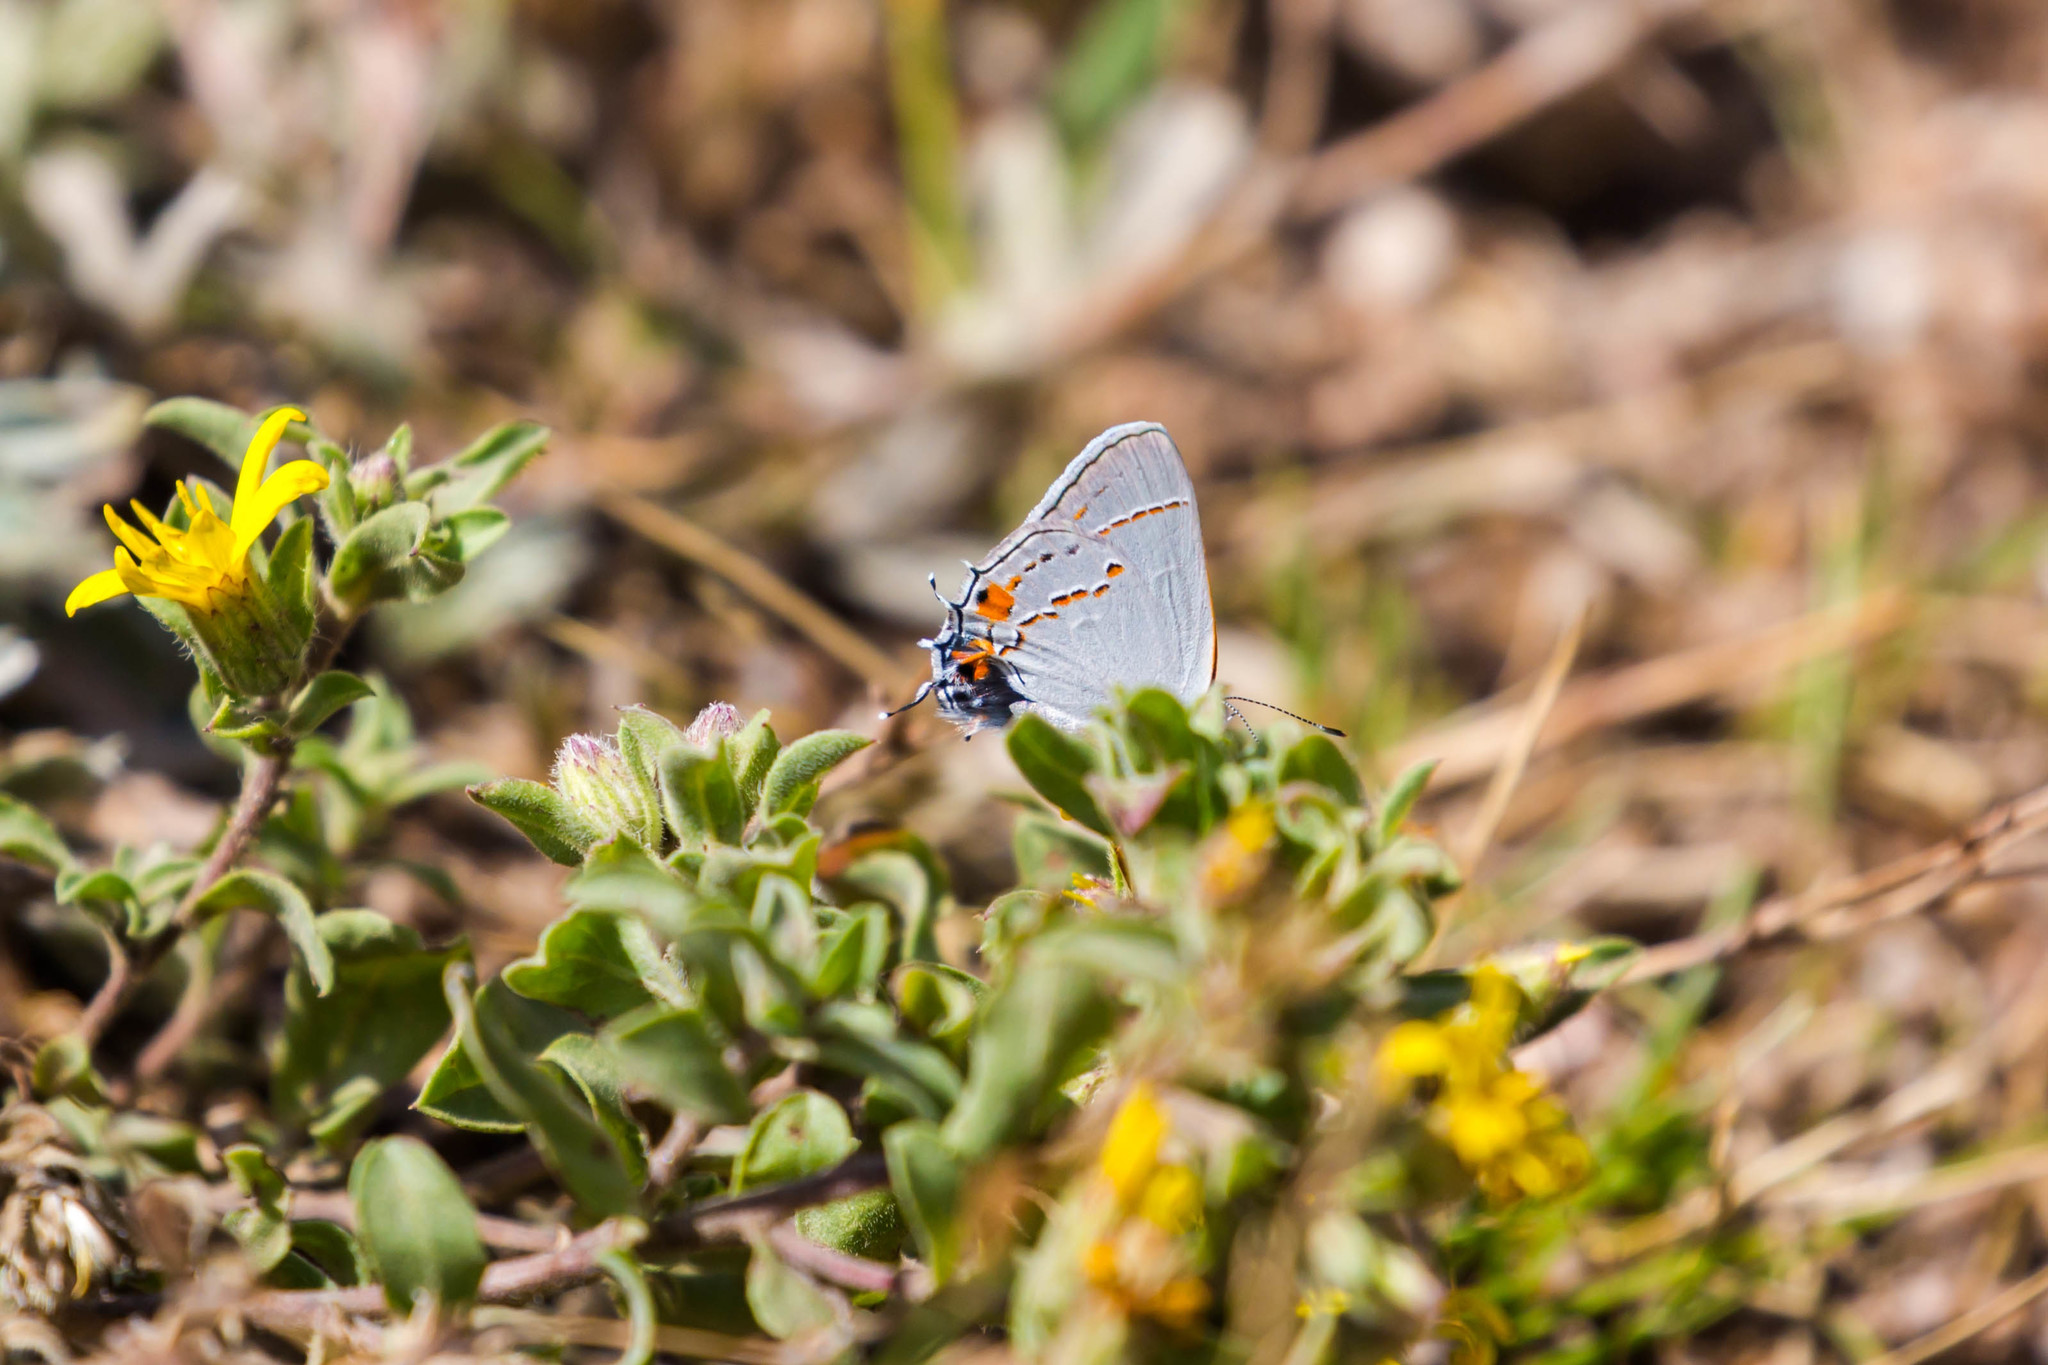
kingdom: Animalia
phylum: Arthropoda
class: Insecta
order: Lepidoptera
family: Lycaenidae
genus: Strymon
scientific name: Strymon melinus
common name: Gray hairstreak
